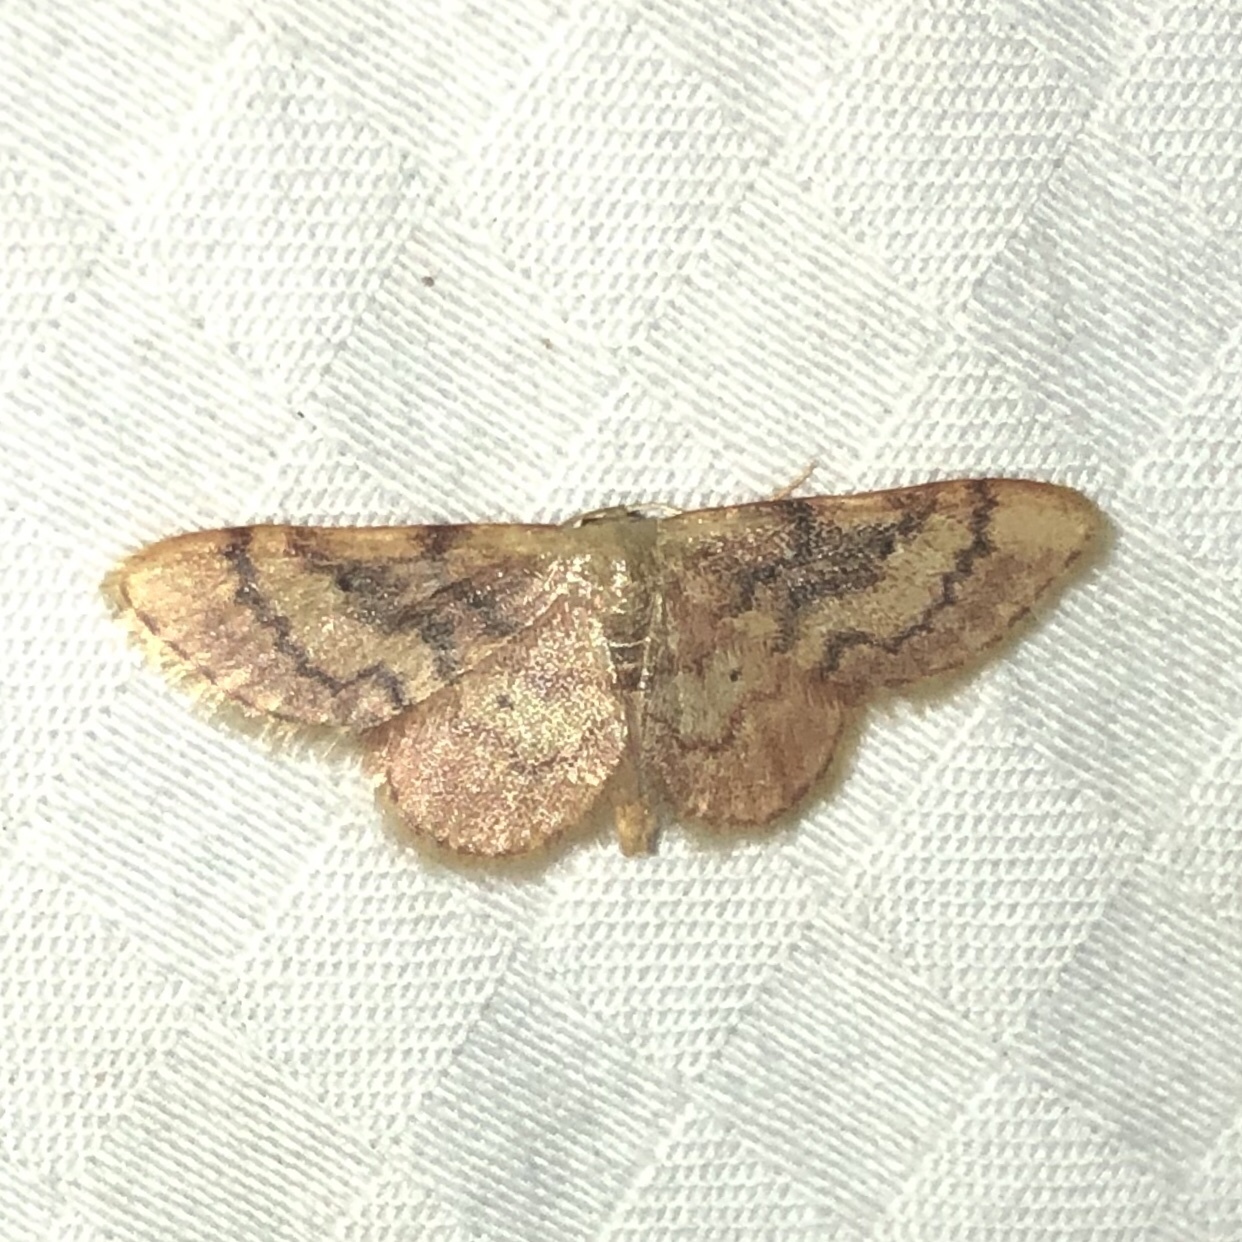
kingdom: Animalia
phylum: Arthropoda
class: Insecta
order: Lepidoptera
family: Geometridae
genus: Idaea
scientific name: Idaea demissaria
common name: Red-bordered wave
